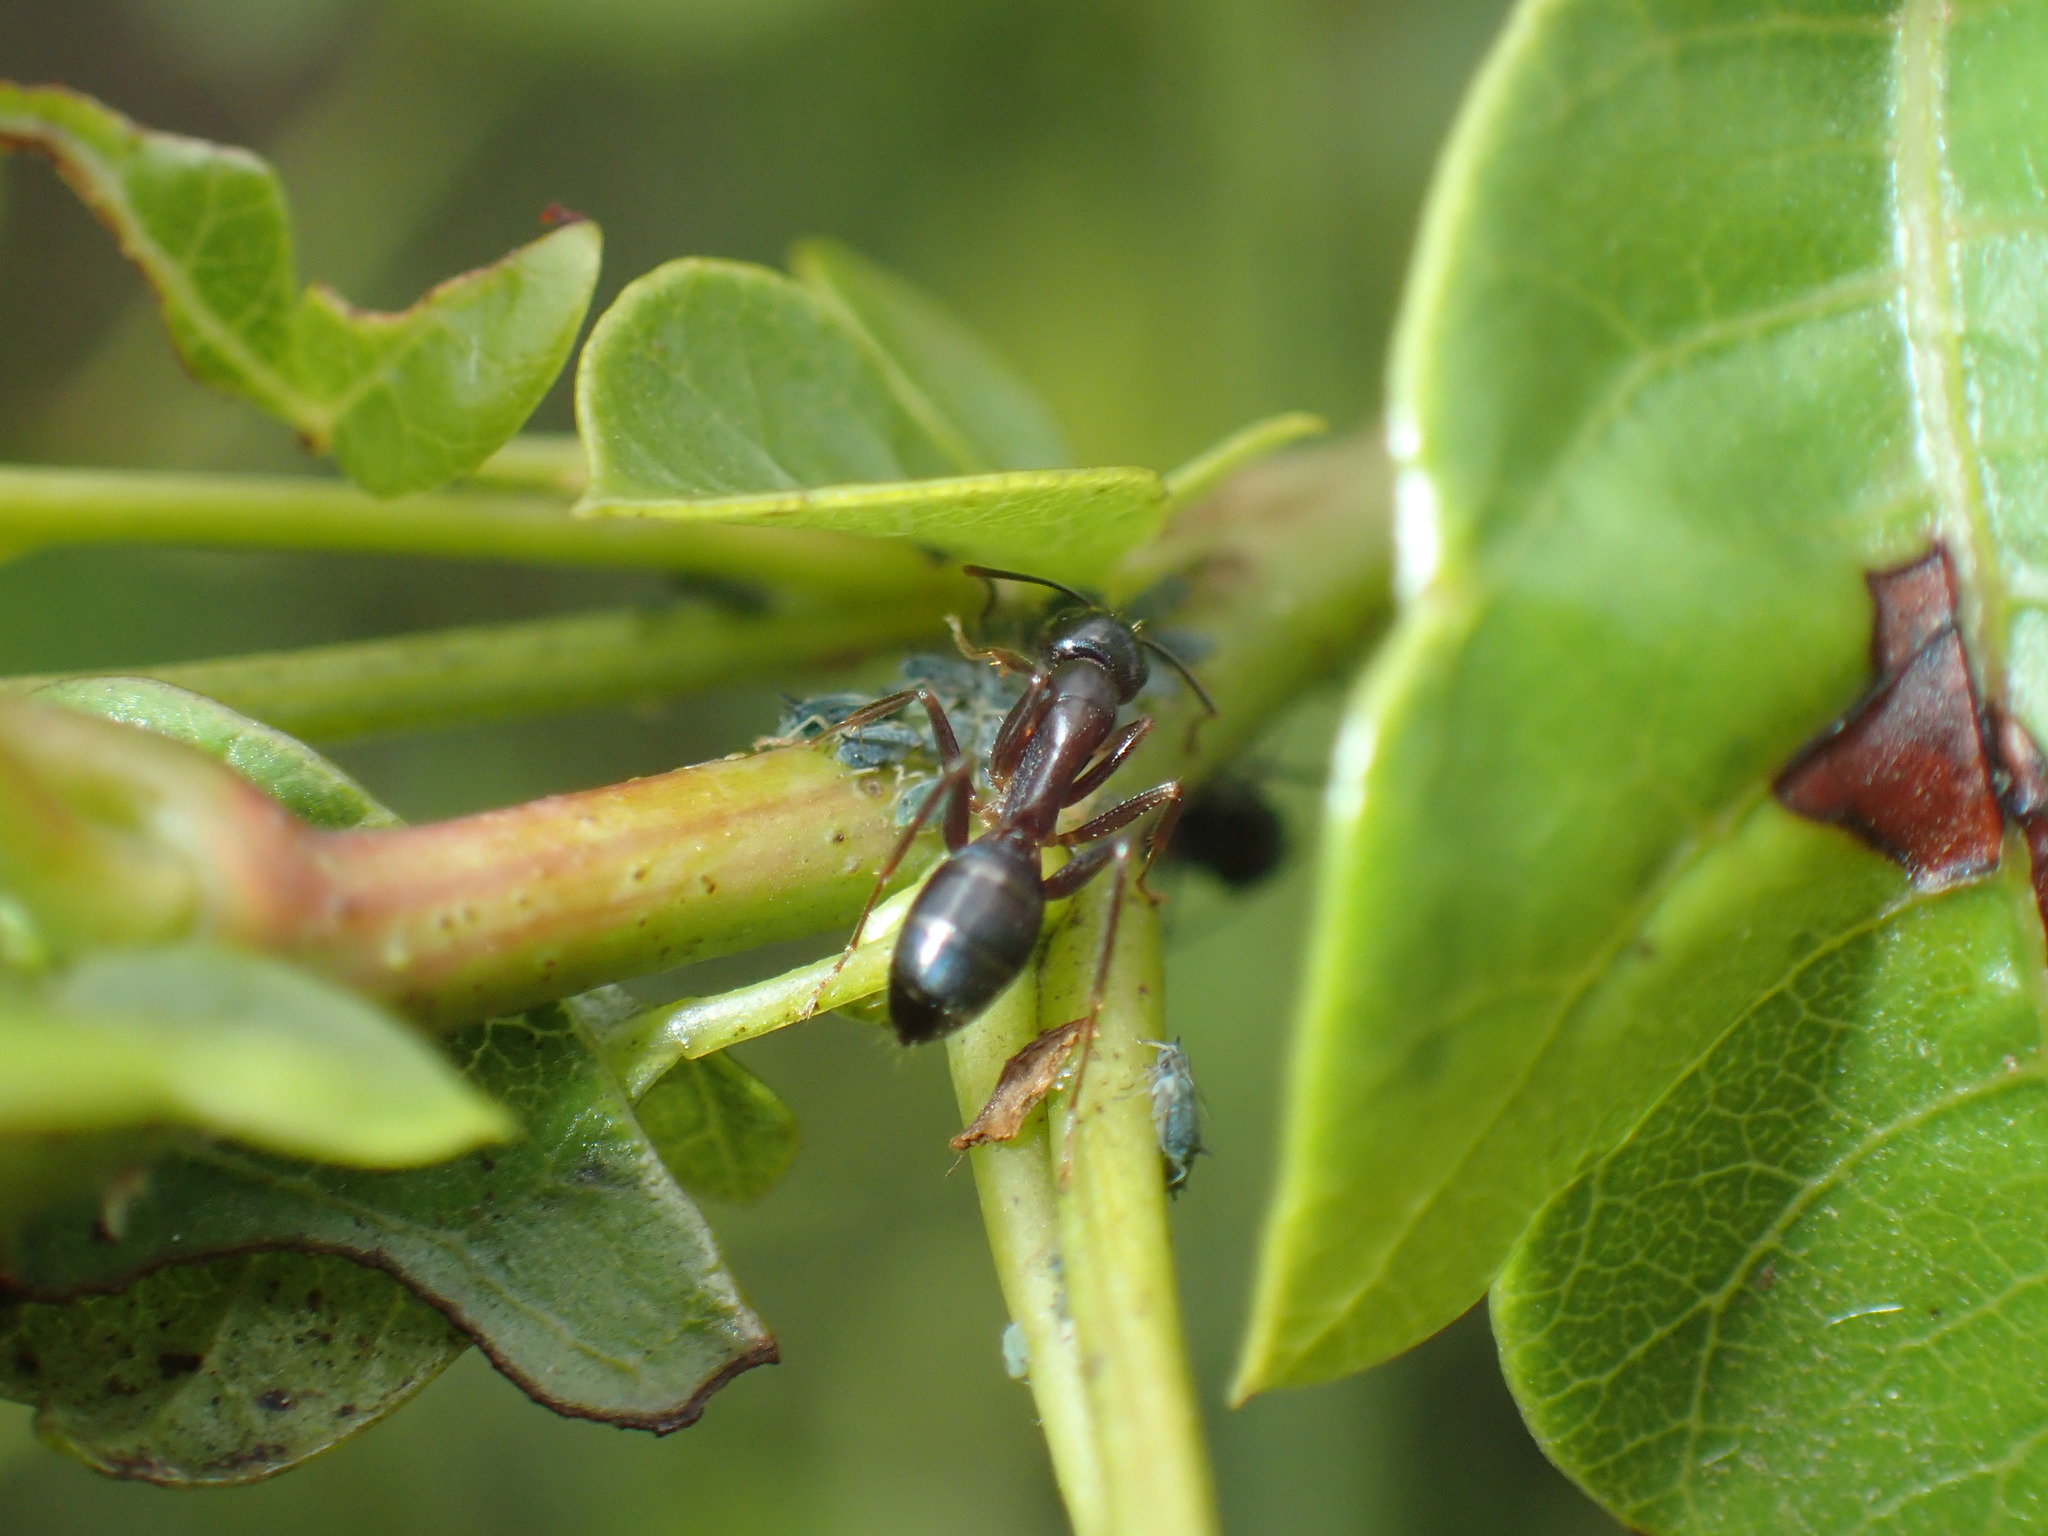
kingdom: Animalia
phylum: Arthropoda
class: Insecta
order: Hymenoptera
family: Formicidae
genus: Camponotus
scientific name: Camponotus basuto
